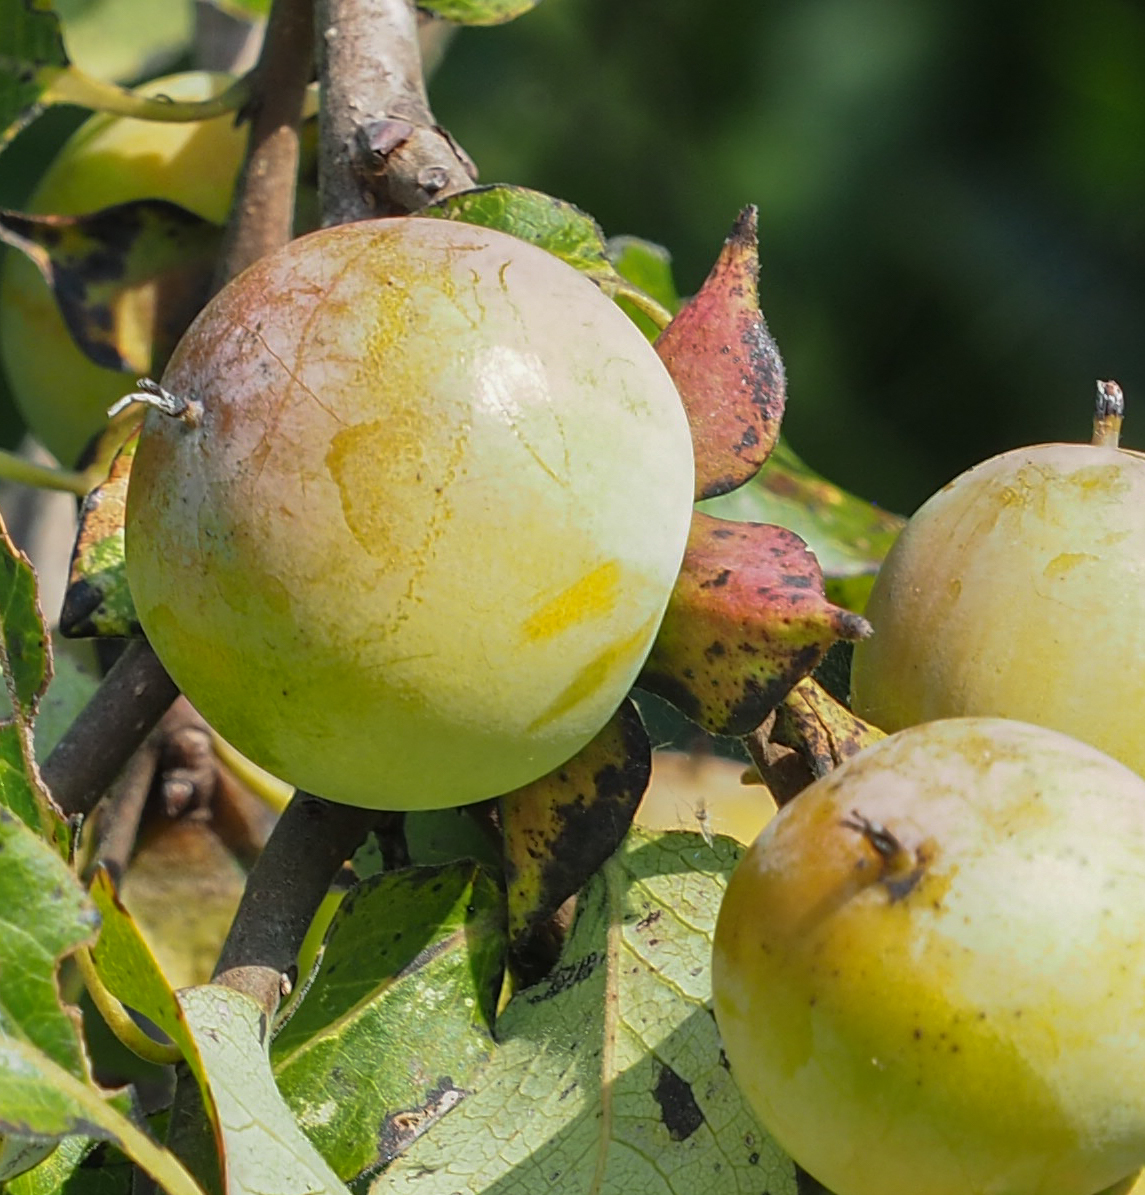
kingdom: Plantae
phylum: Tracheophyta
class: Magnoliopsida
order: Ericales
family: Ebenaceae
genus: Diospyros
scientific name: Diospyros virginiana
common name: Persimmon
